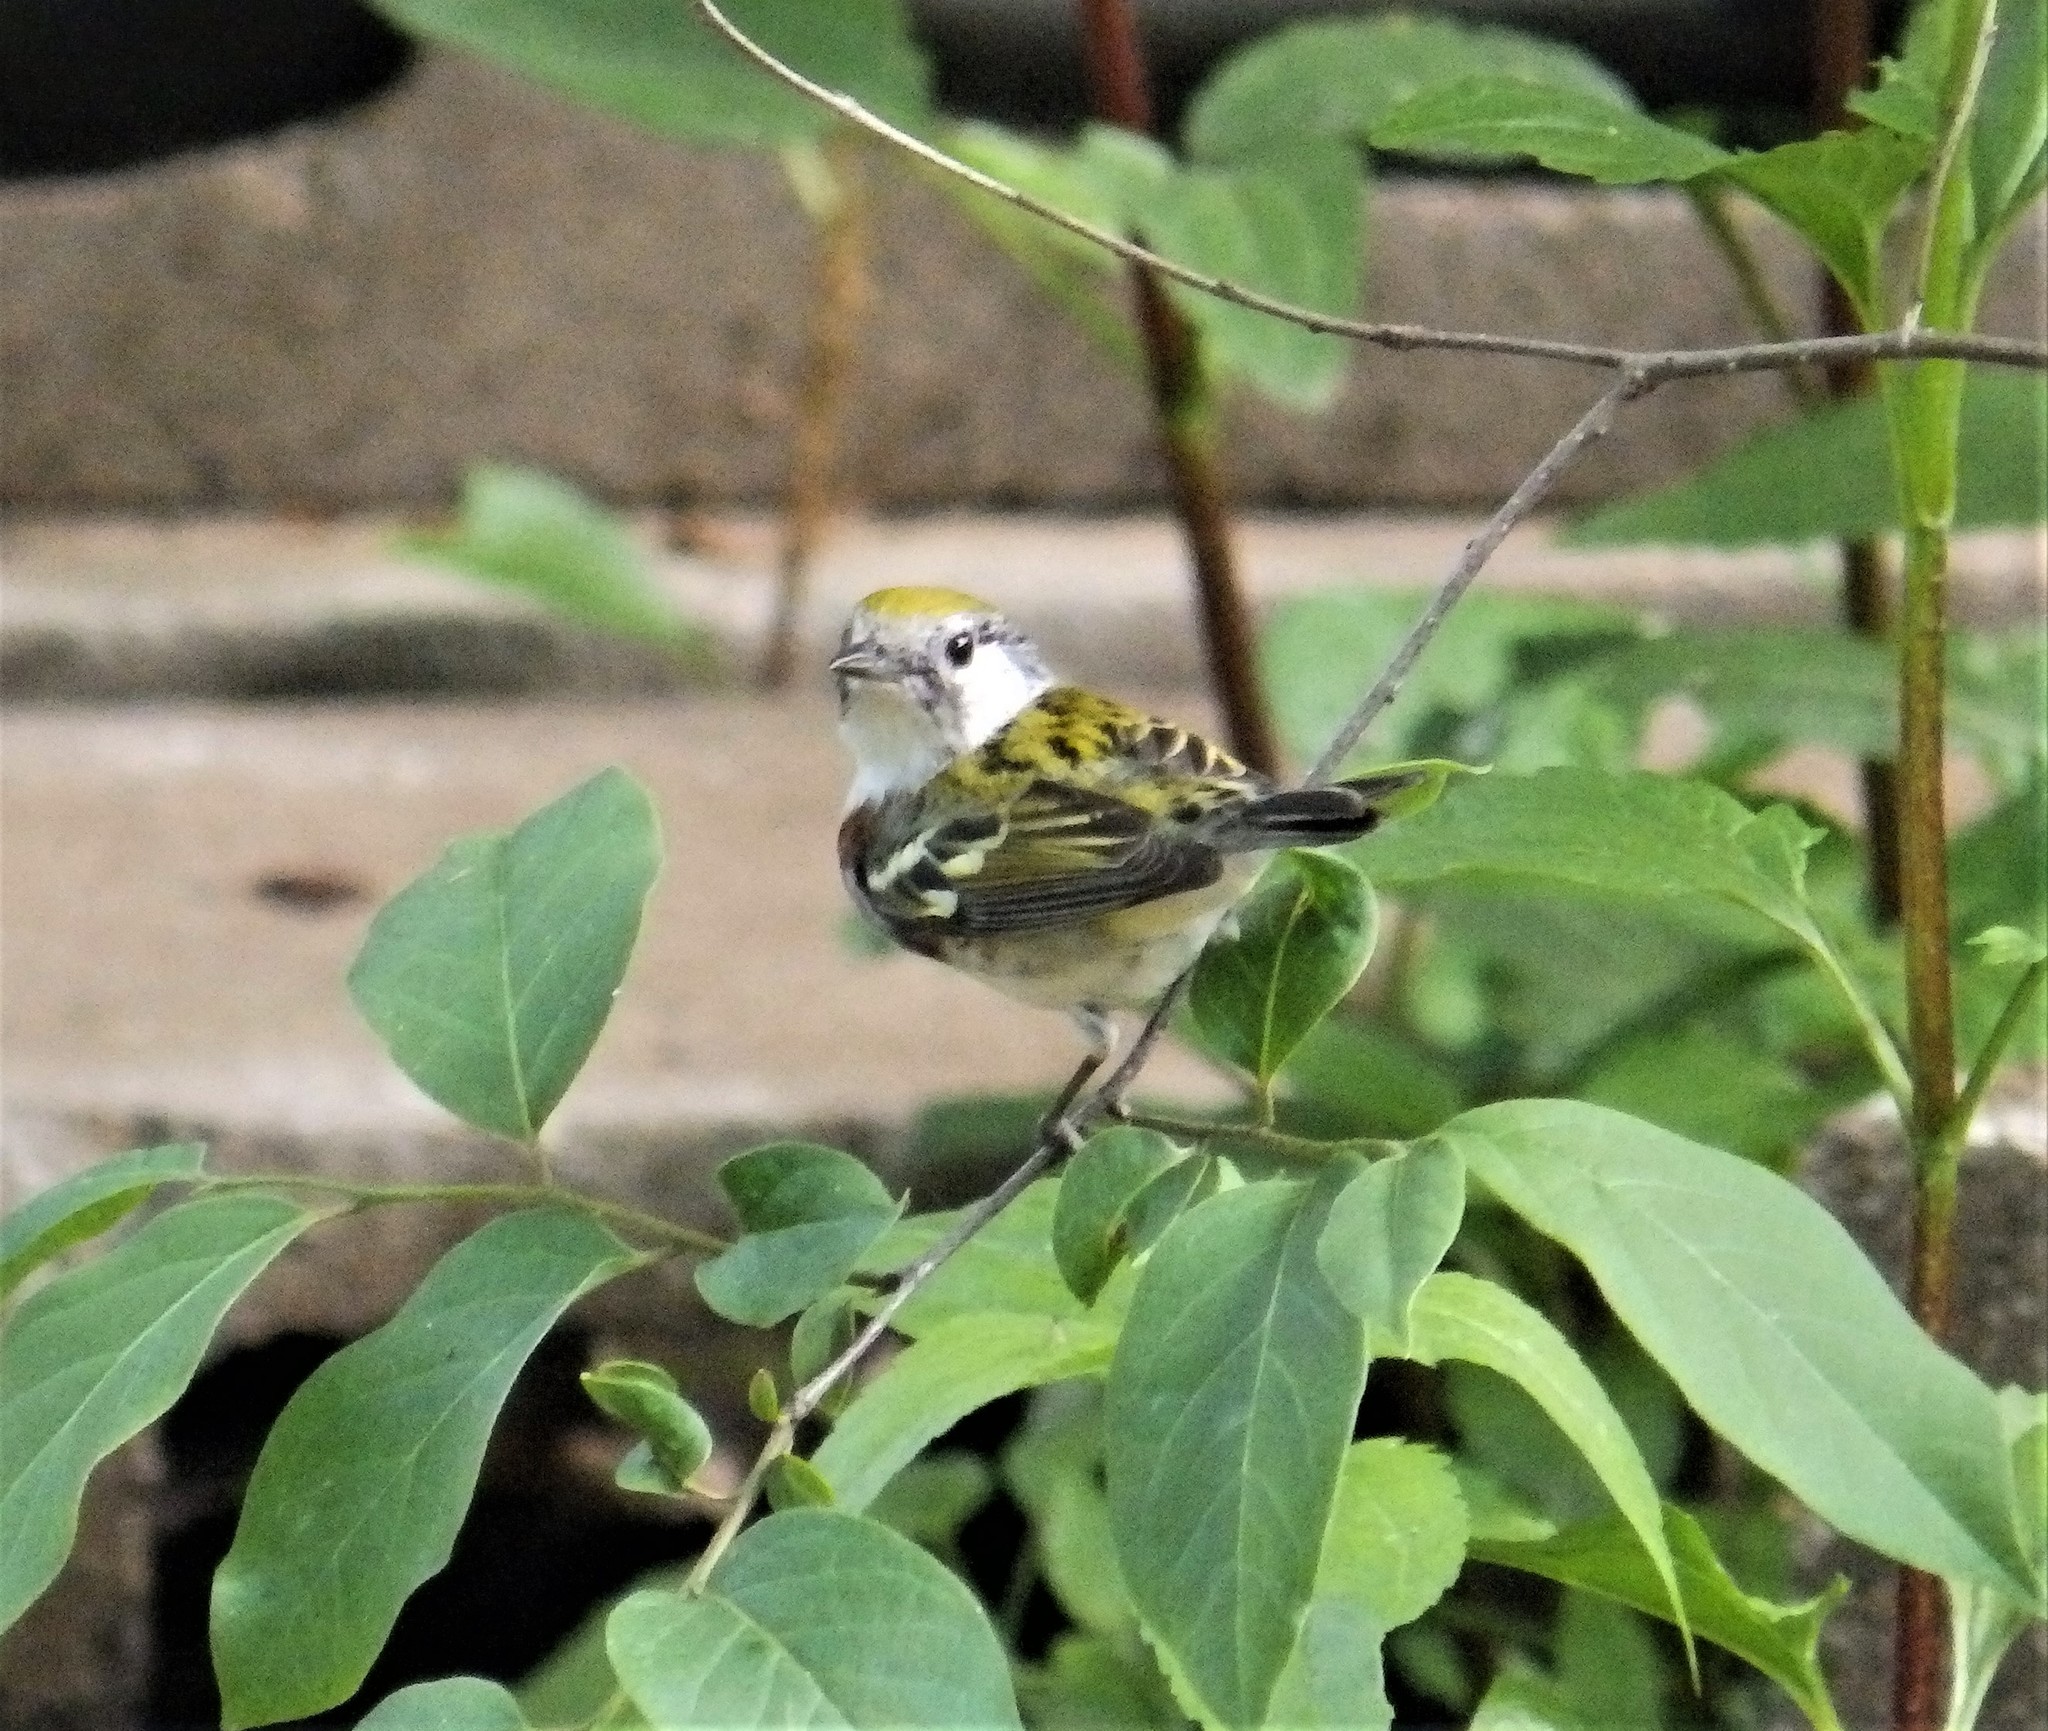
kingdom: Animalia
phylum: Chordata
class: Aves
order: Passeriformes
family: Parulidae
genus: Setophaga
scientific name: Setophaga pensylvanica
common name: Chestnut-sided warbler
